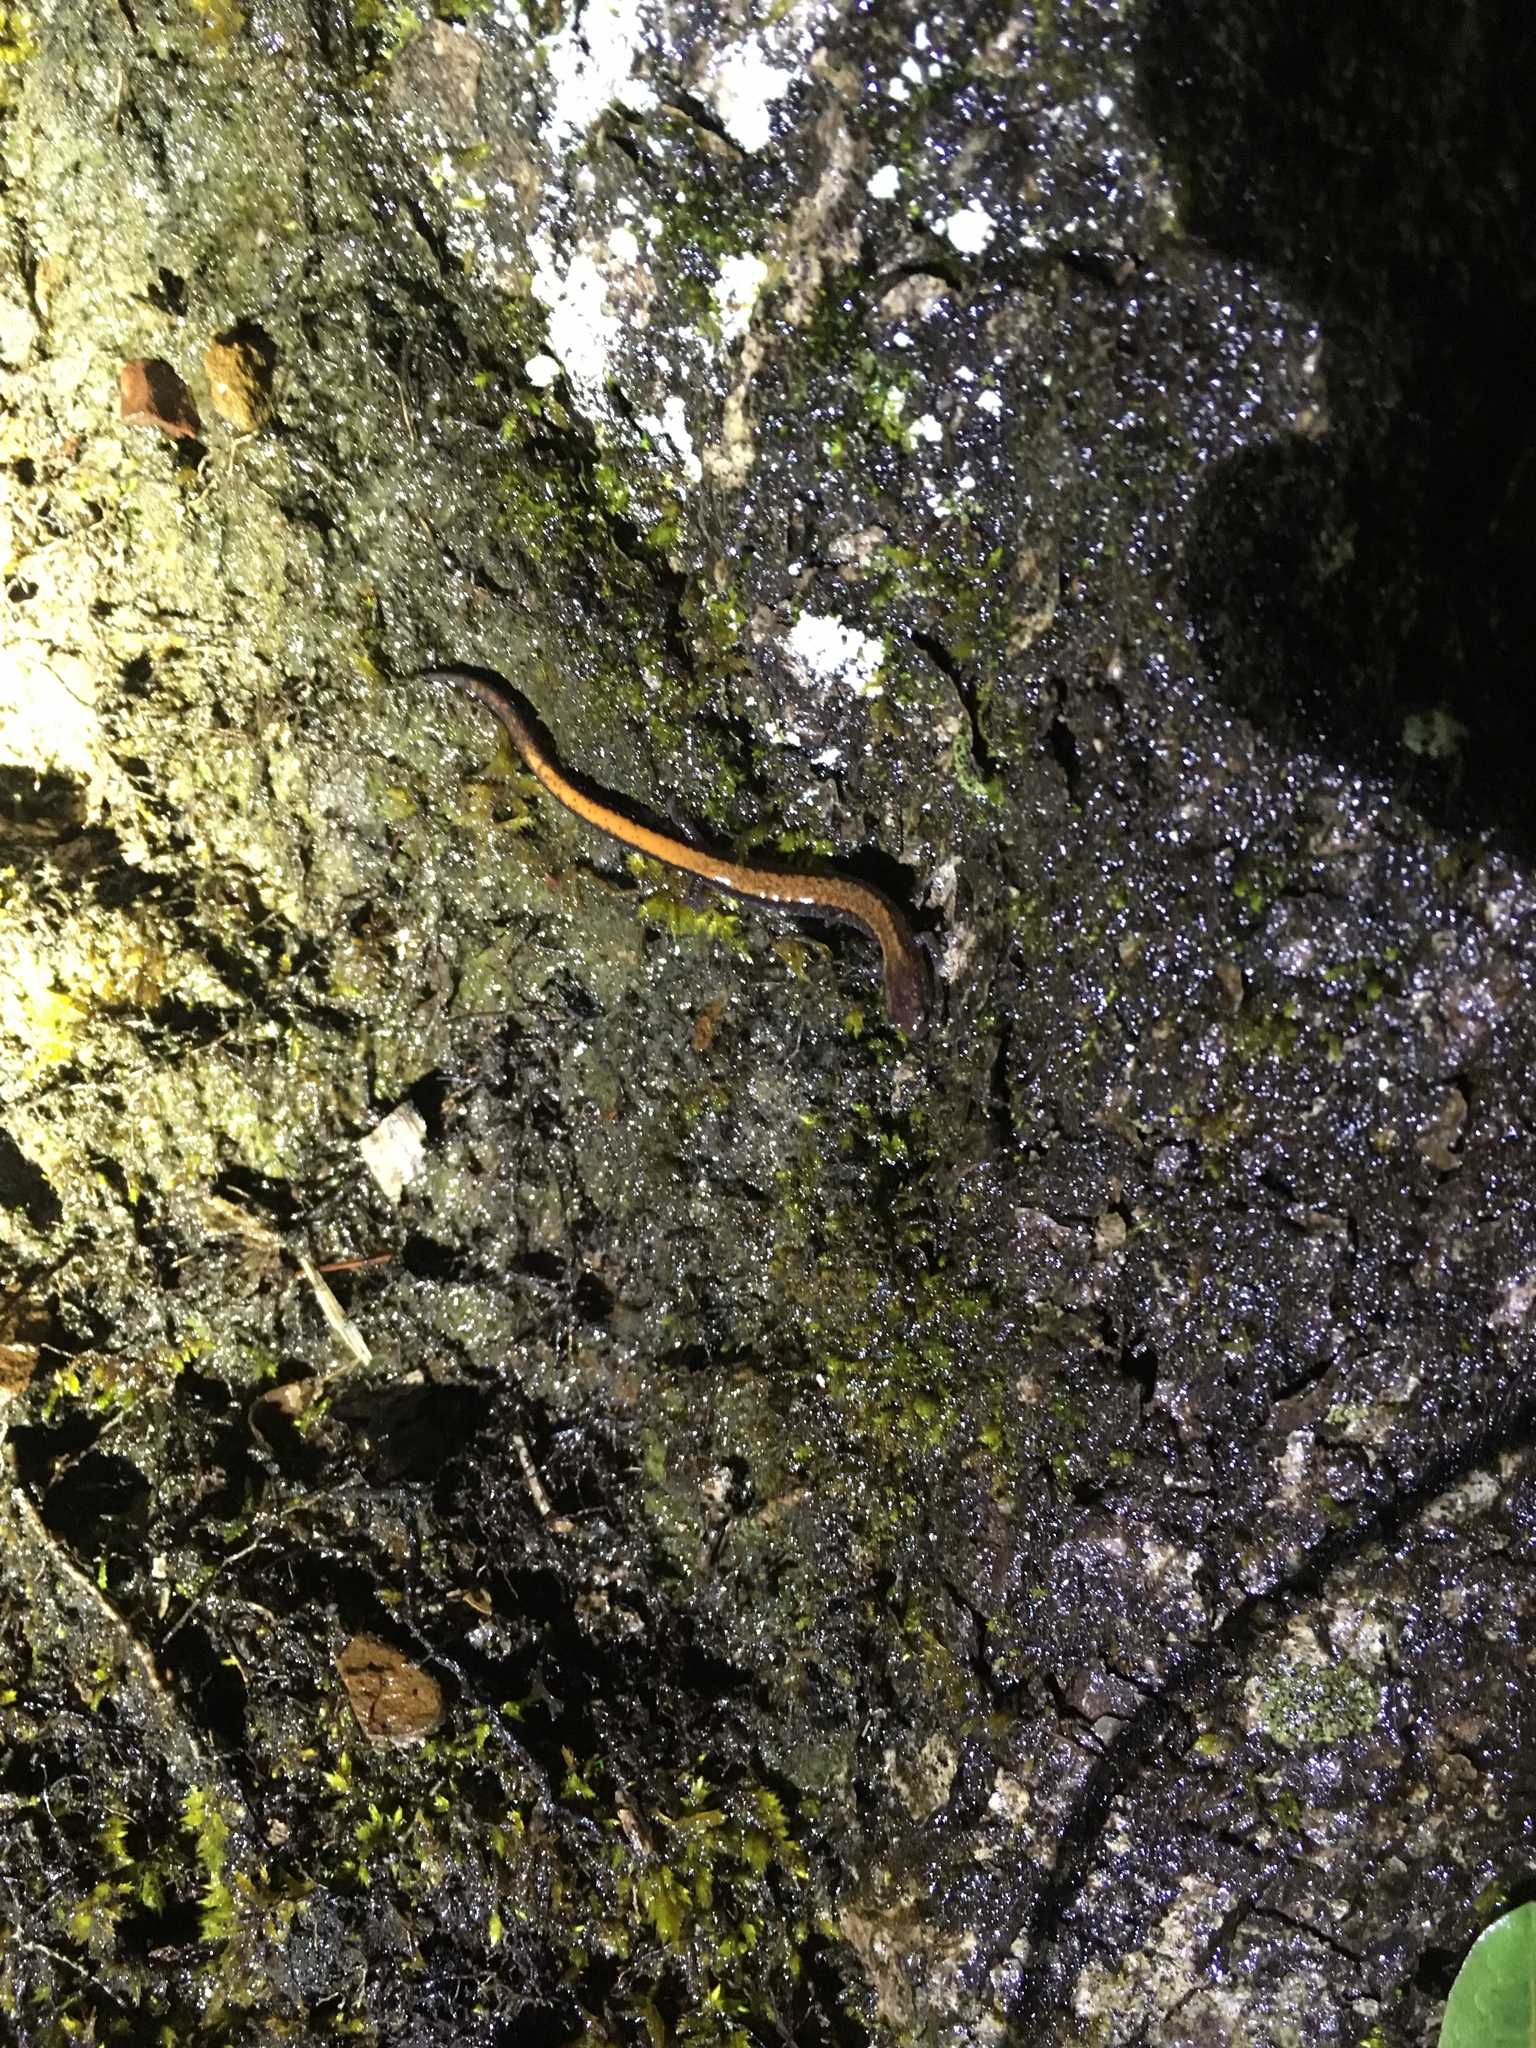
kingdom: Animalia
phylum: Chordata
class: Amphibia
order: Caudata
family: Plethodontidae
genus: Plethodon
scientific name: Plethodon cinereus
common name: Redback salamander
